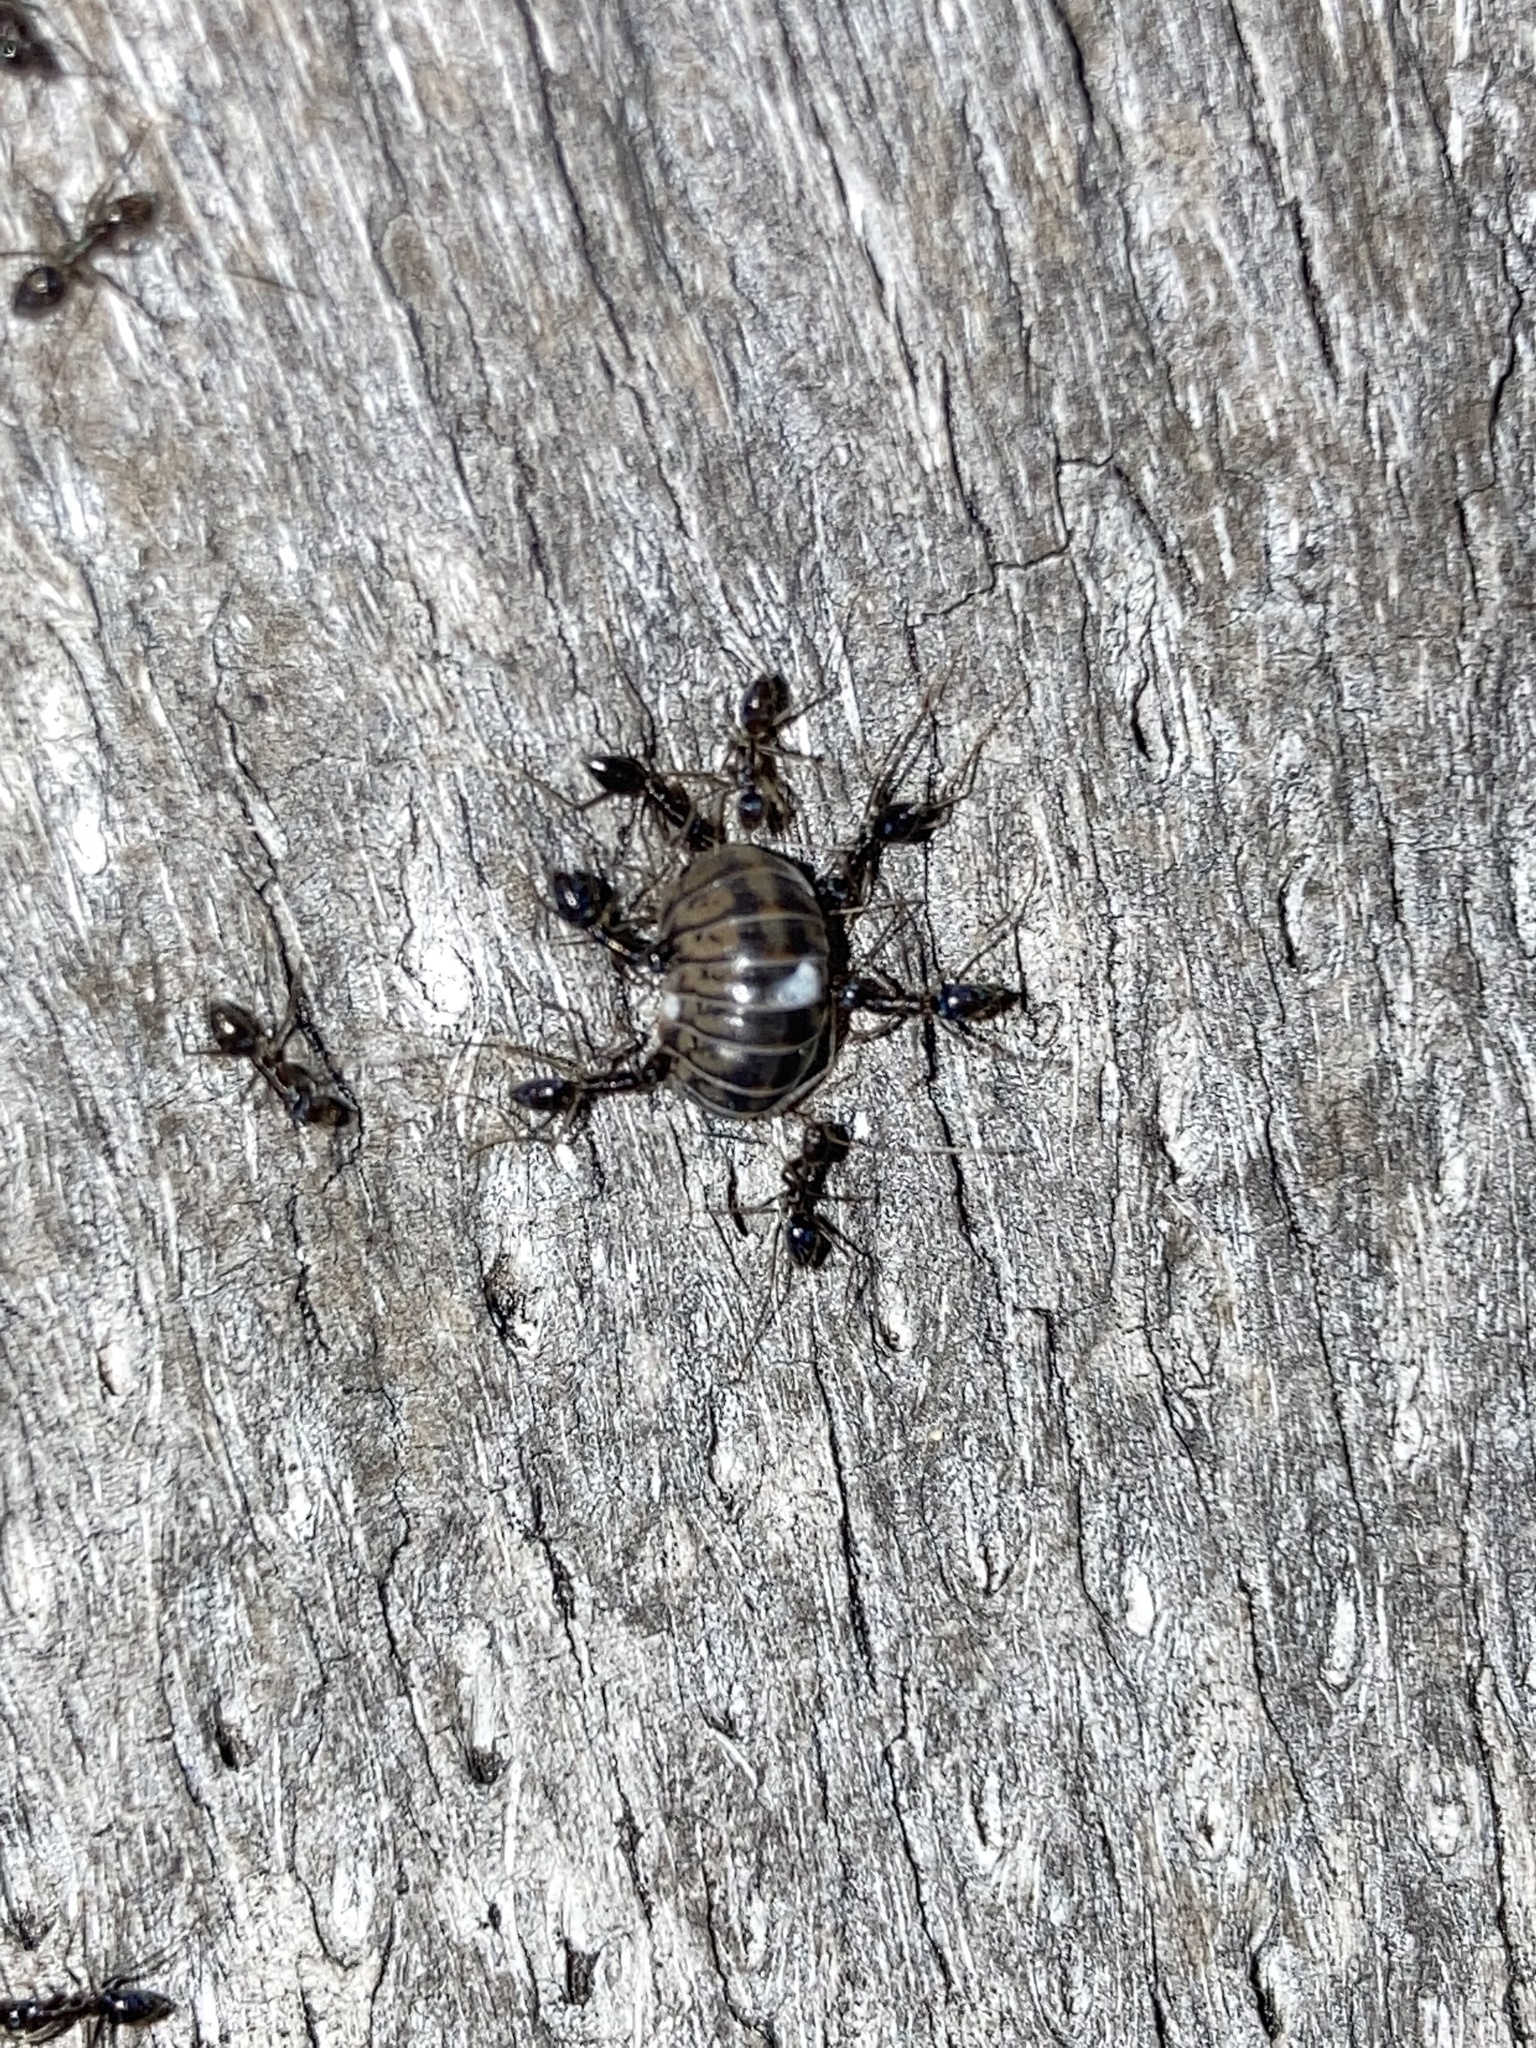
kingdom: Animalia
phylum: Arthropoda
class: Insecta
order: Hymenoptera
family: Formicidae
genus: Paratrechina
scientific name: Paratrechina longicornis
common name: Longhorned crazy ant
